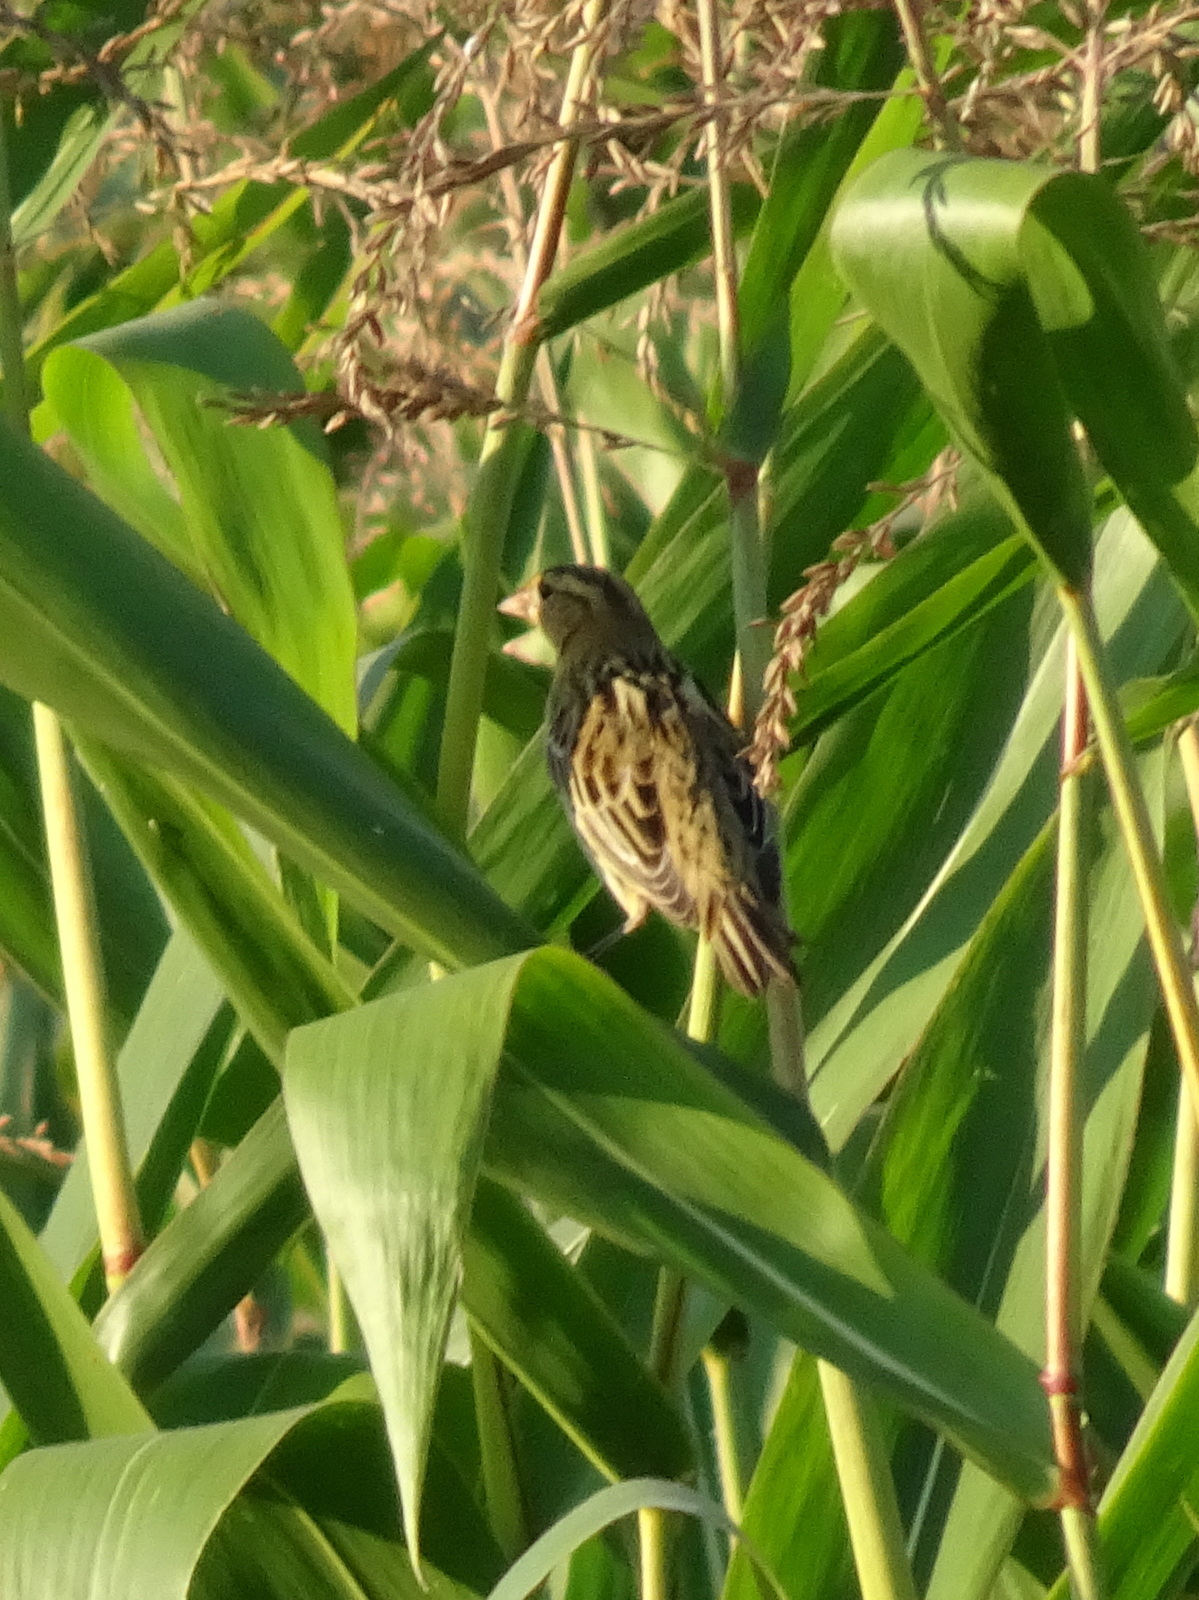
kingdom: Animalia
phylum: Chordata
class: Aves
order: Passeriformes
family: Icteridae
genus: Dolichonyx
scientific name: Dolichonyx oryzivorus
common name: Bobolink
